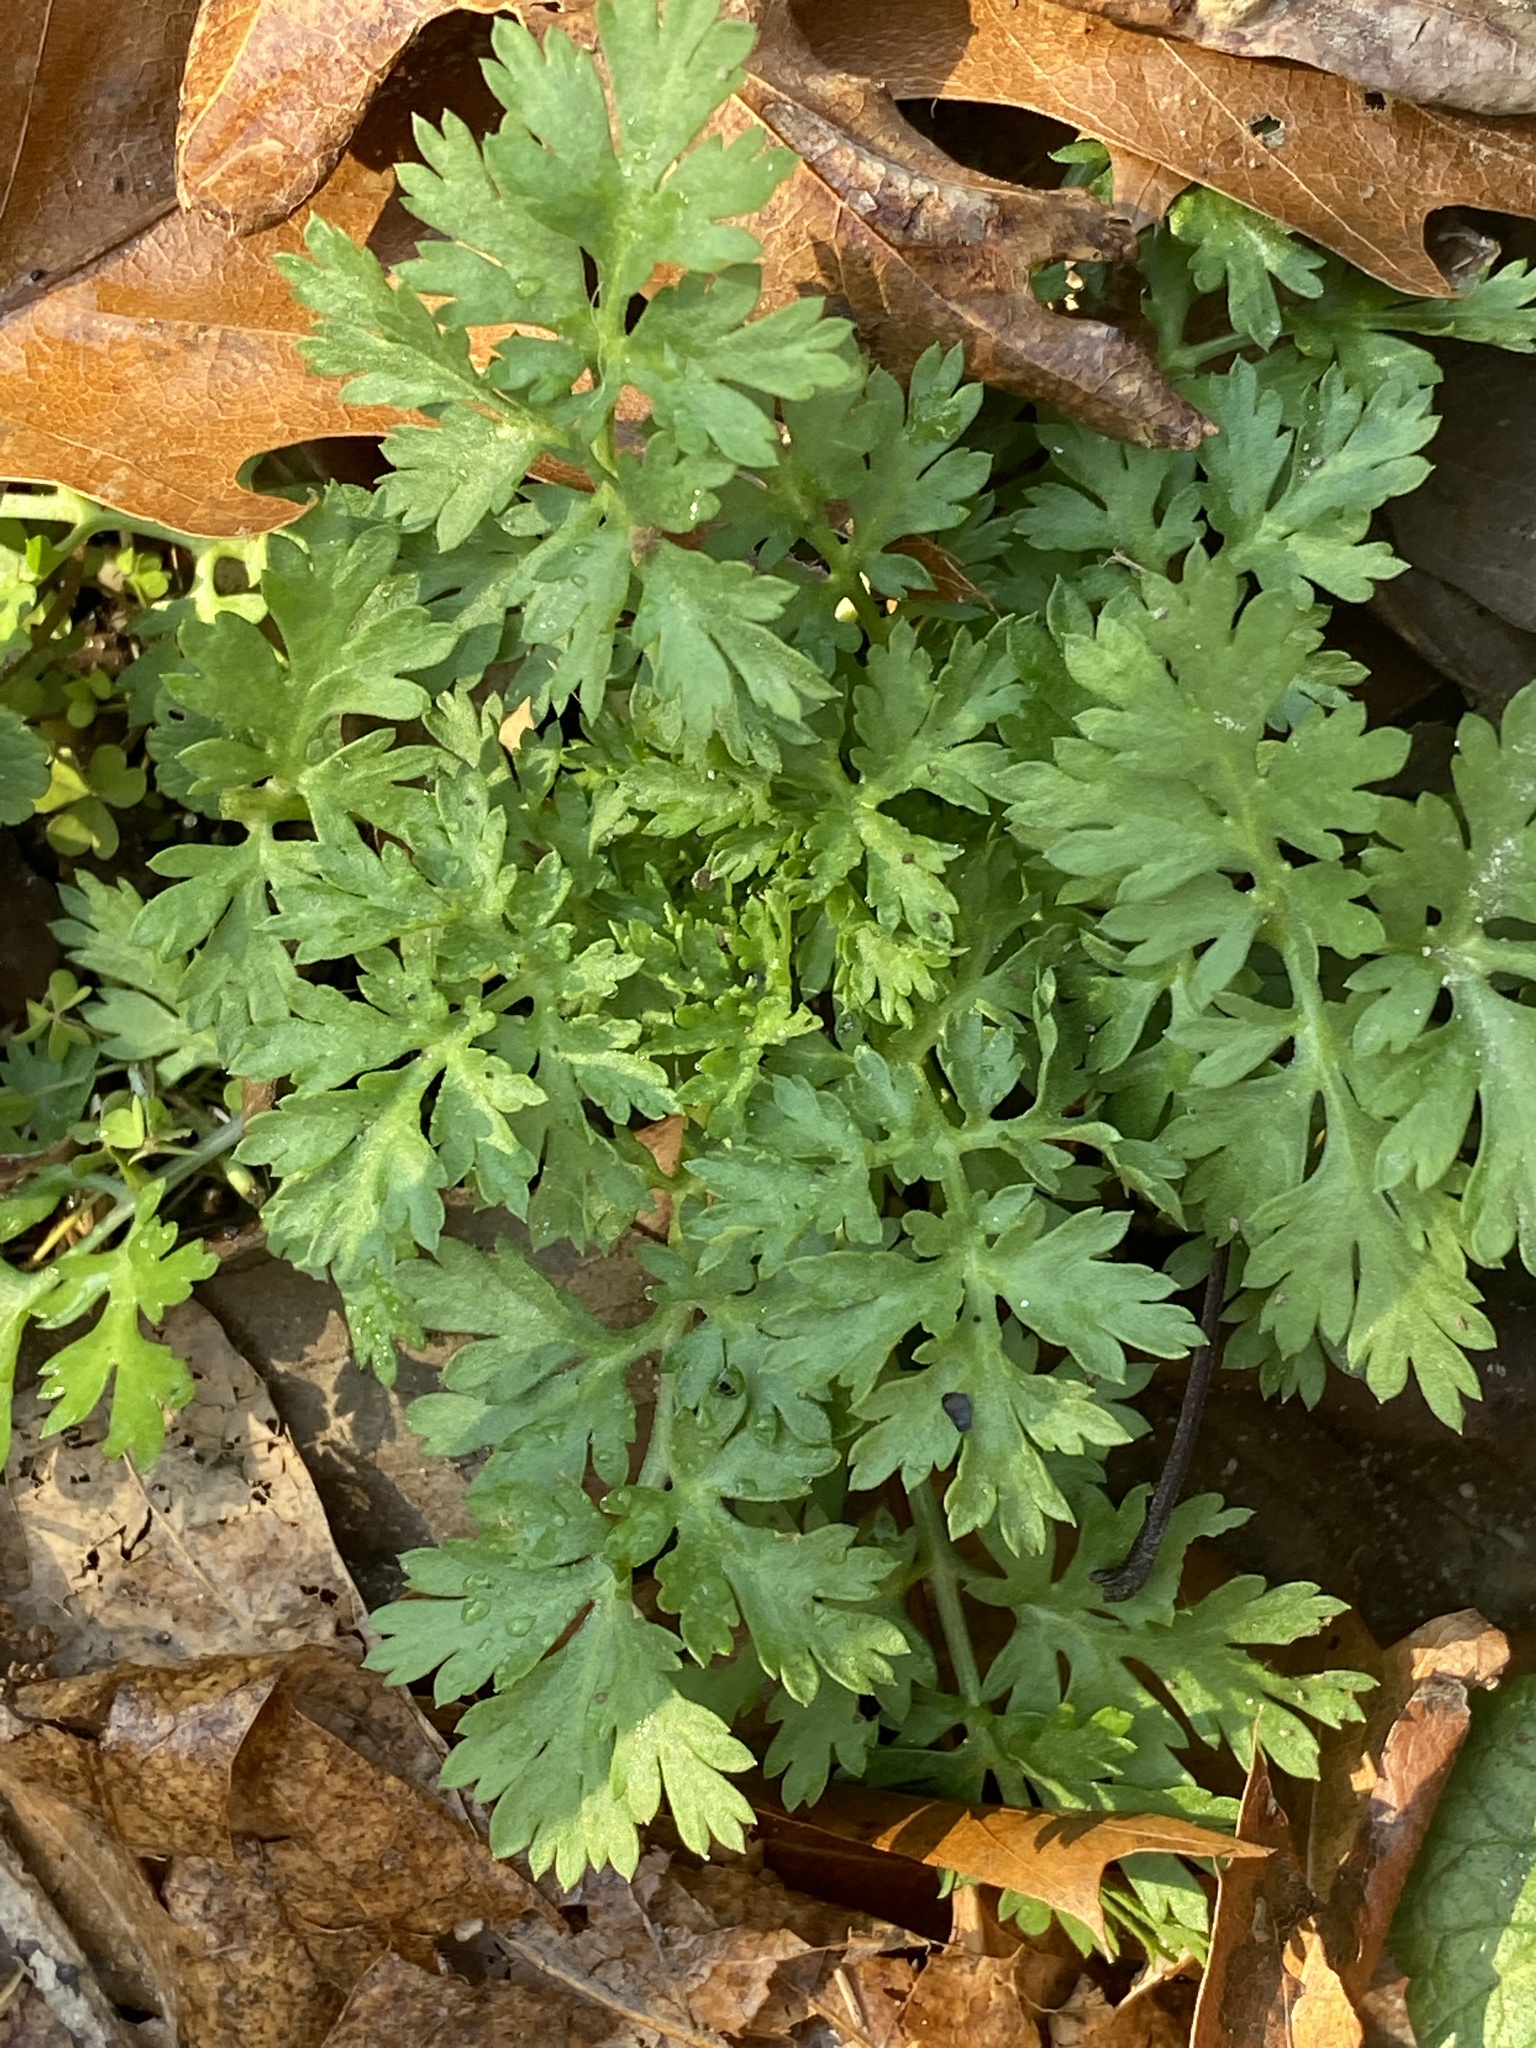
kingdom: Plantae
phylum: Tracheophyta
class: Magnoliopsida
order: Asterales
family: Asteraceae
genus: Tanacetum
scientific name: Tanacetum parthenium
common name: Feverfew
